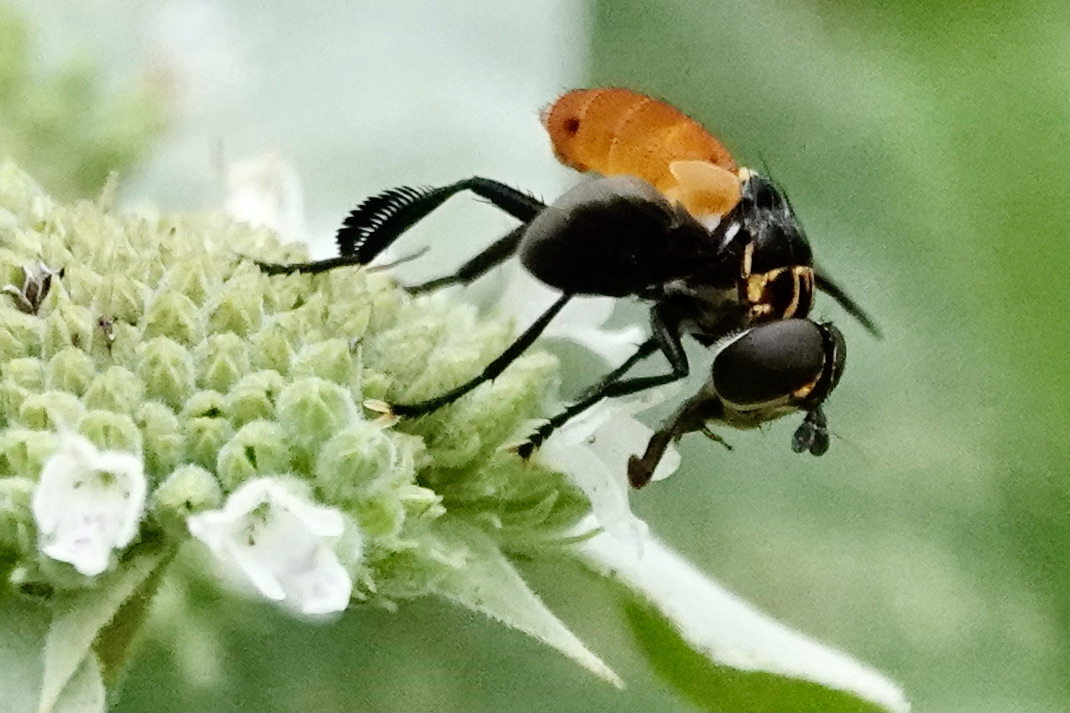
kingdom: Animalia
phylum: Arthropoda
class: Insecta
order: Diptera
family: Tachinidae
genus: Trichopoda
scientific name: Trichopoda pennipes
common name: Tachinid fly
